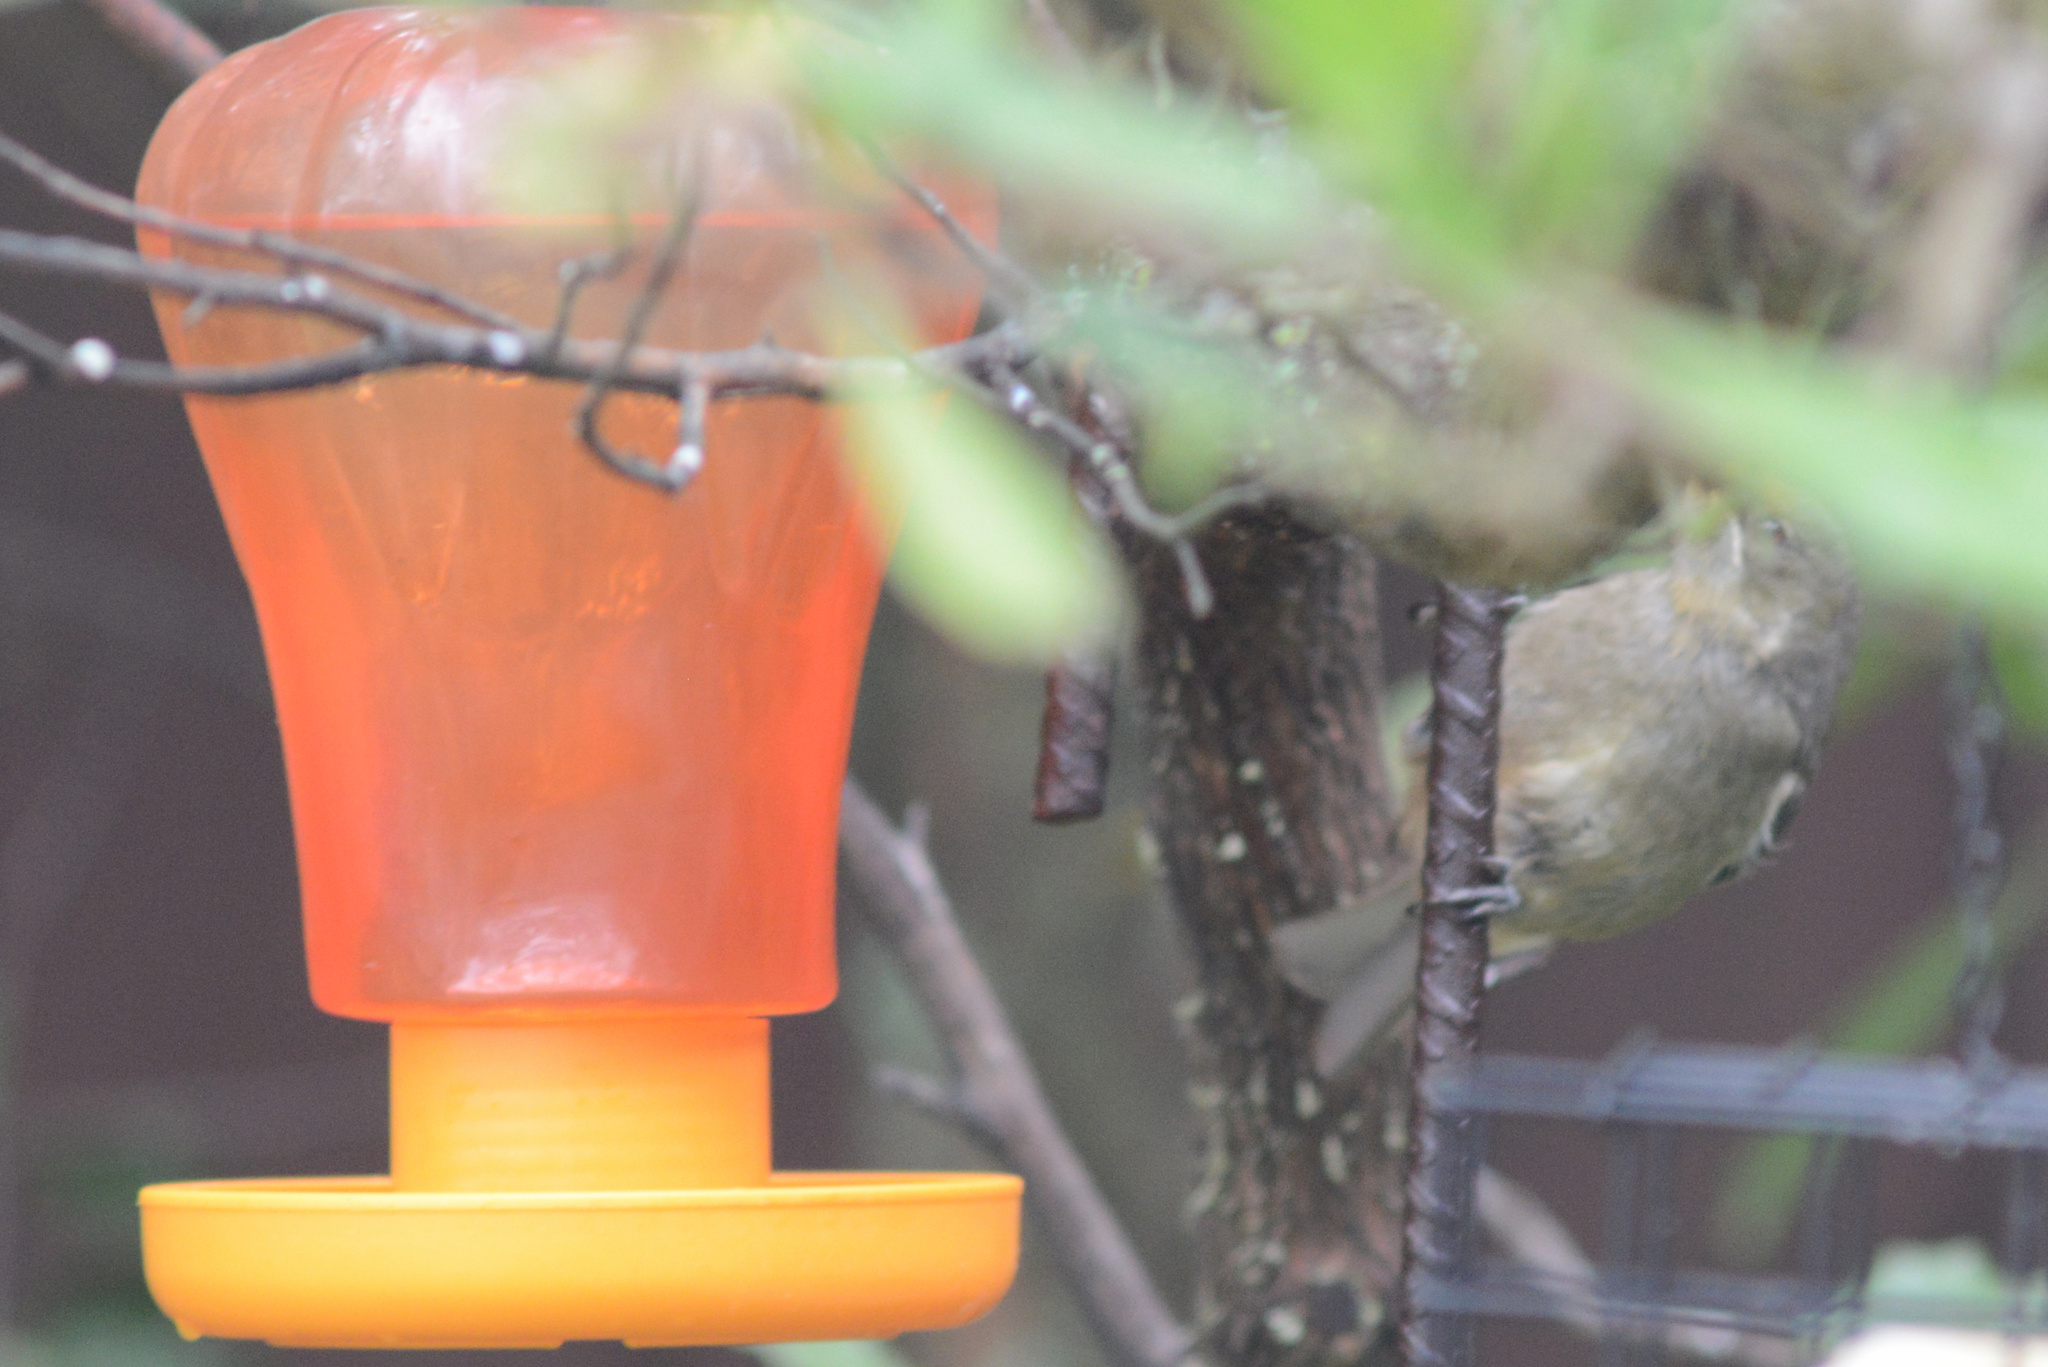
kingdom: Animalia
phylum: Chordata
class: Aves
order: Passeriformes
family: Meliphagidae
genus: Anthornis
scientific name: Anthornis melanura
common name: New zealand bellbird
